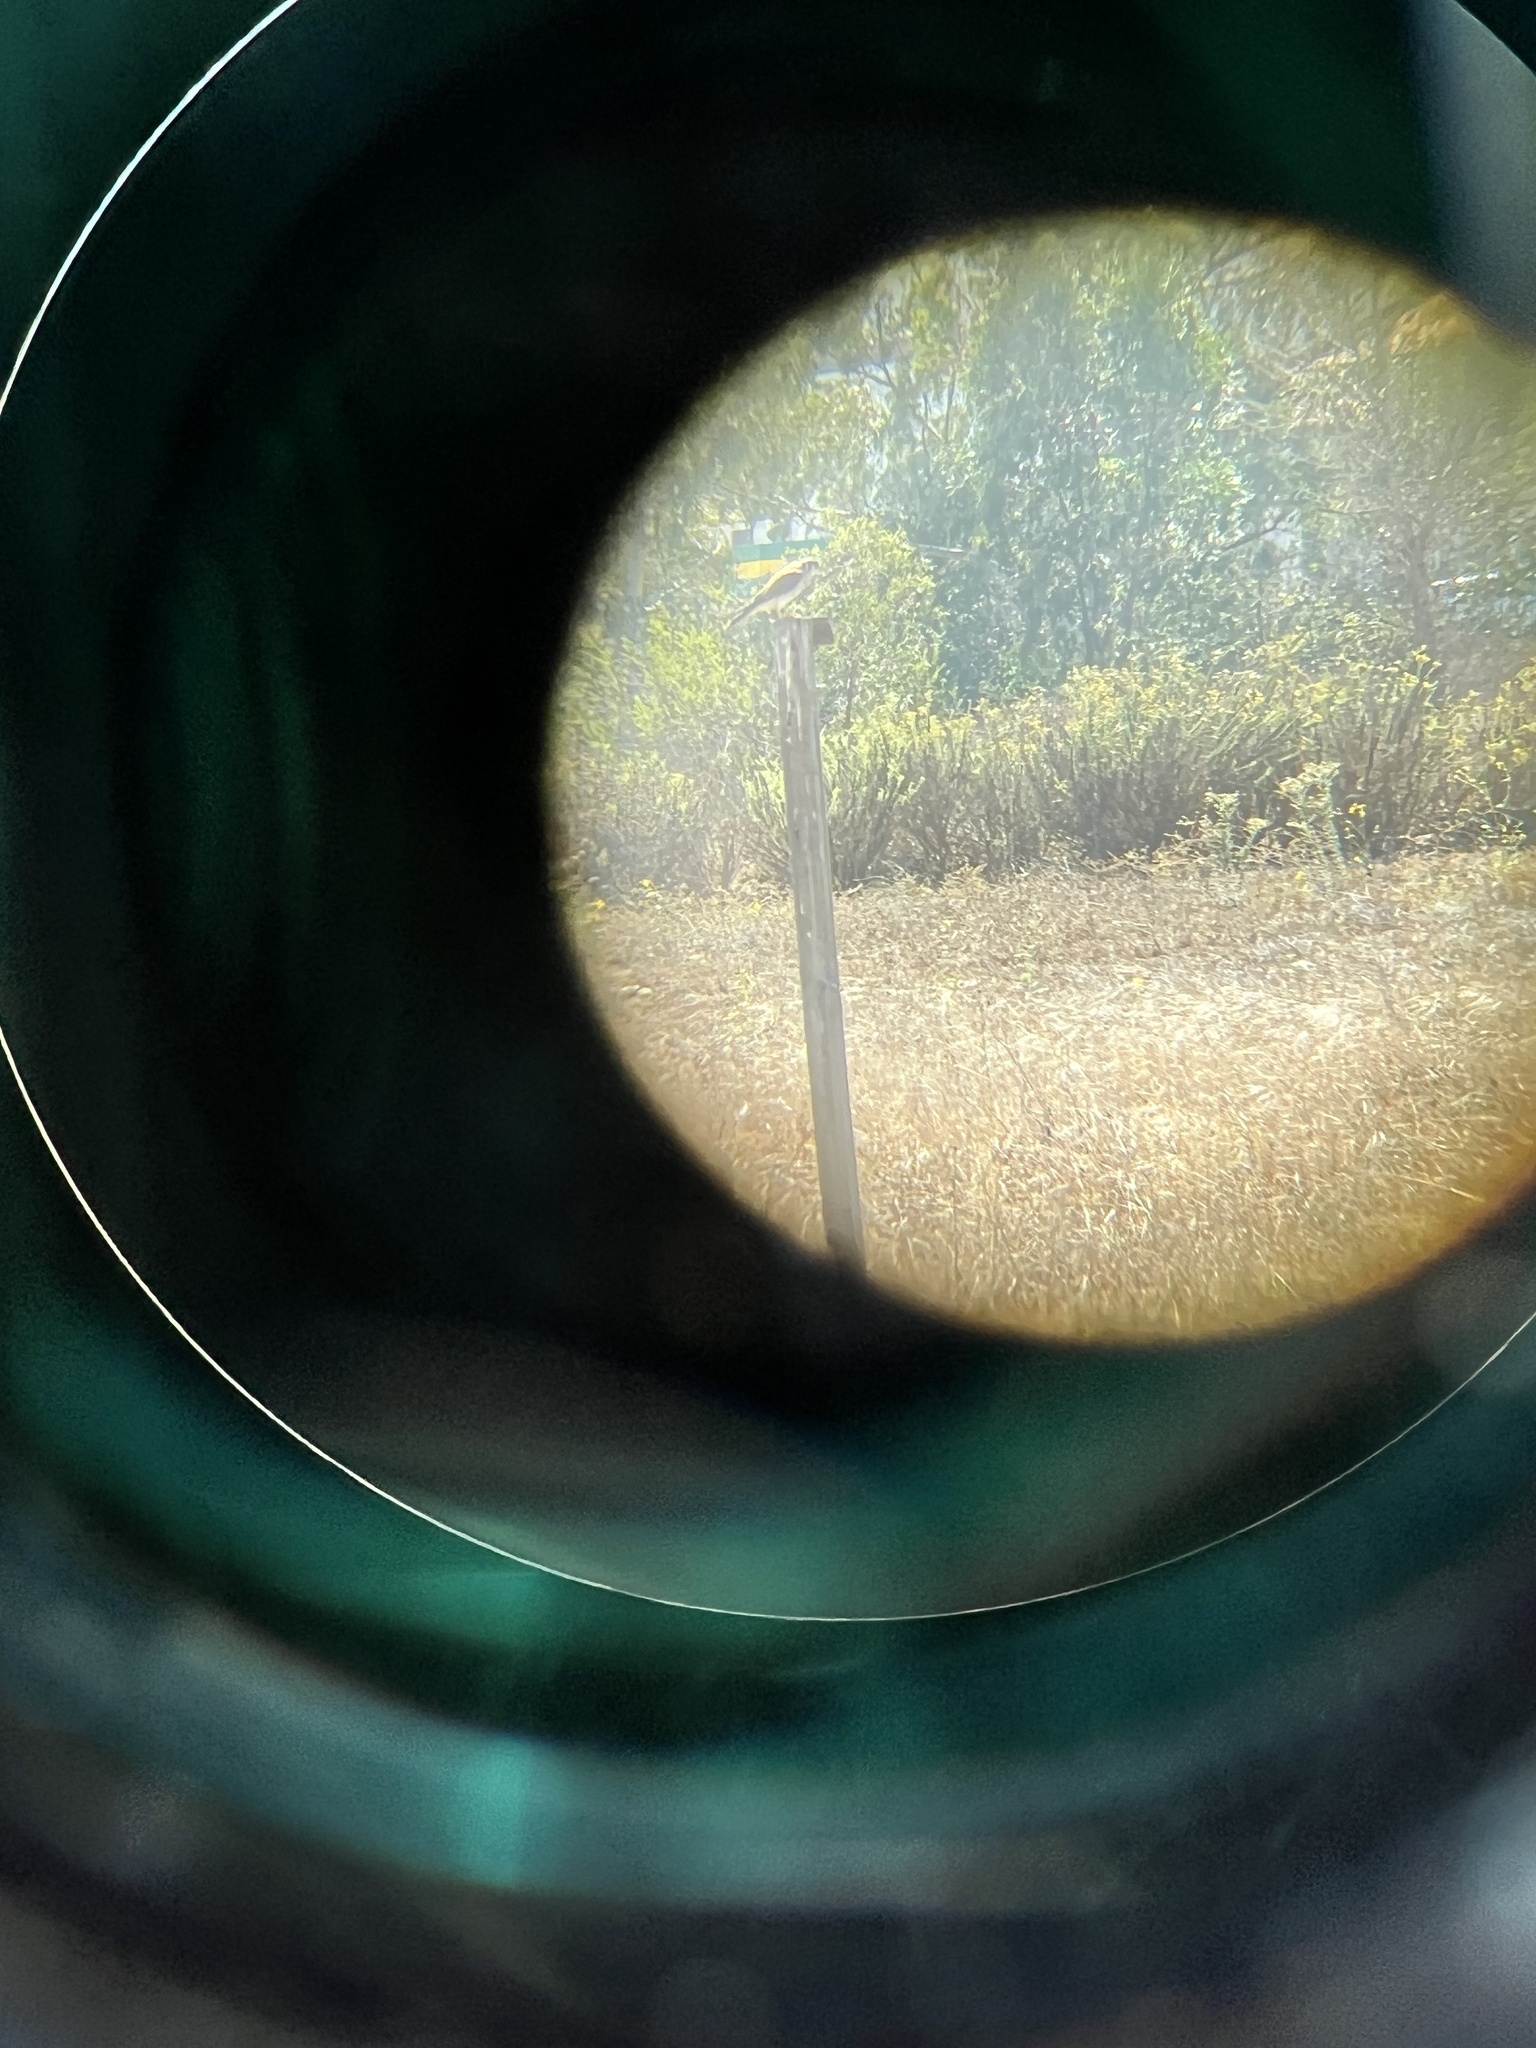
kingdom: Animalia
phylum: Chordata
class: Aves
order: Falconiformes
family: Falconidae
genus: Falco
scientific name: Falco sparverius
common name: American kestrel
